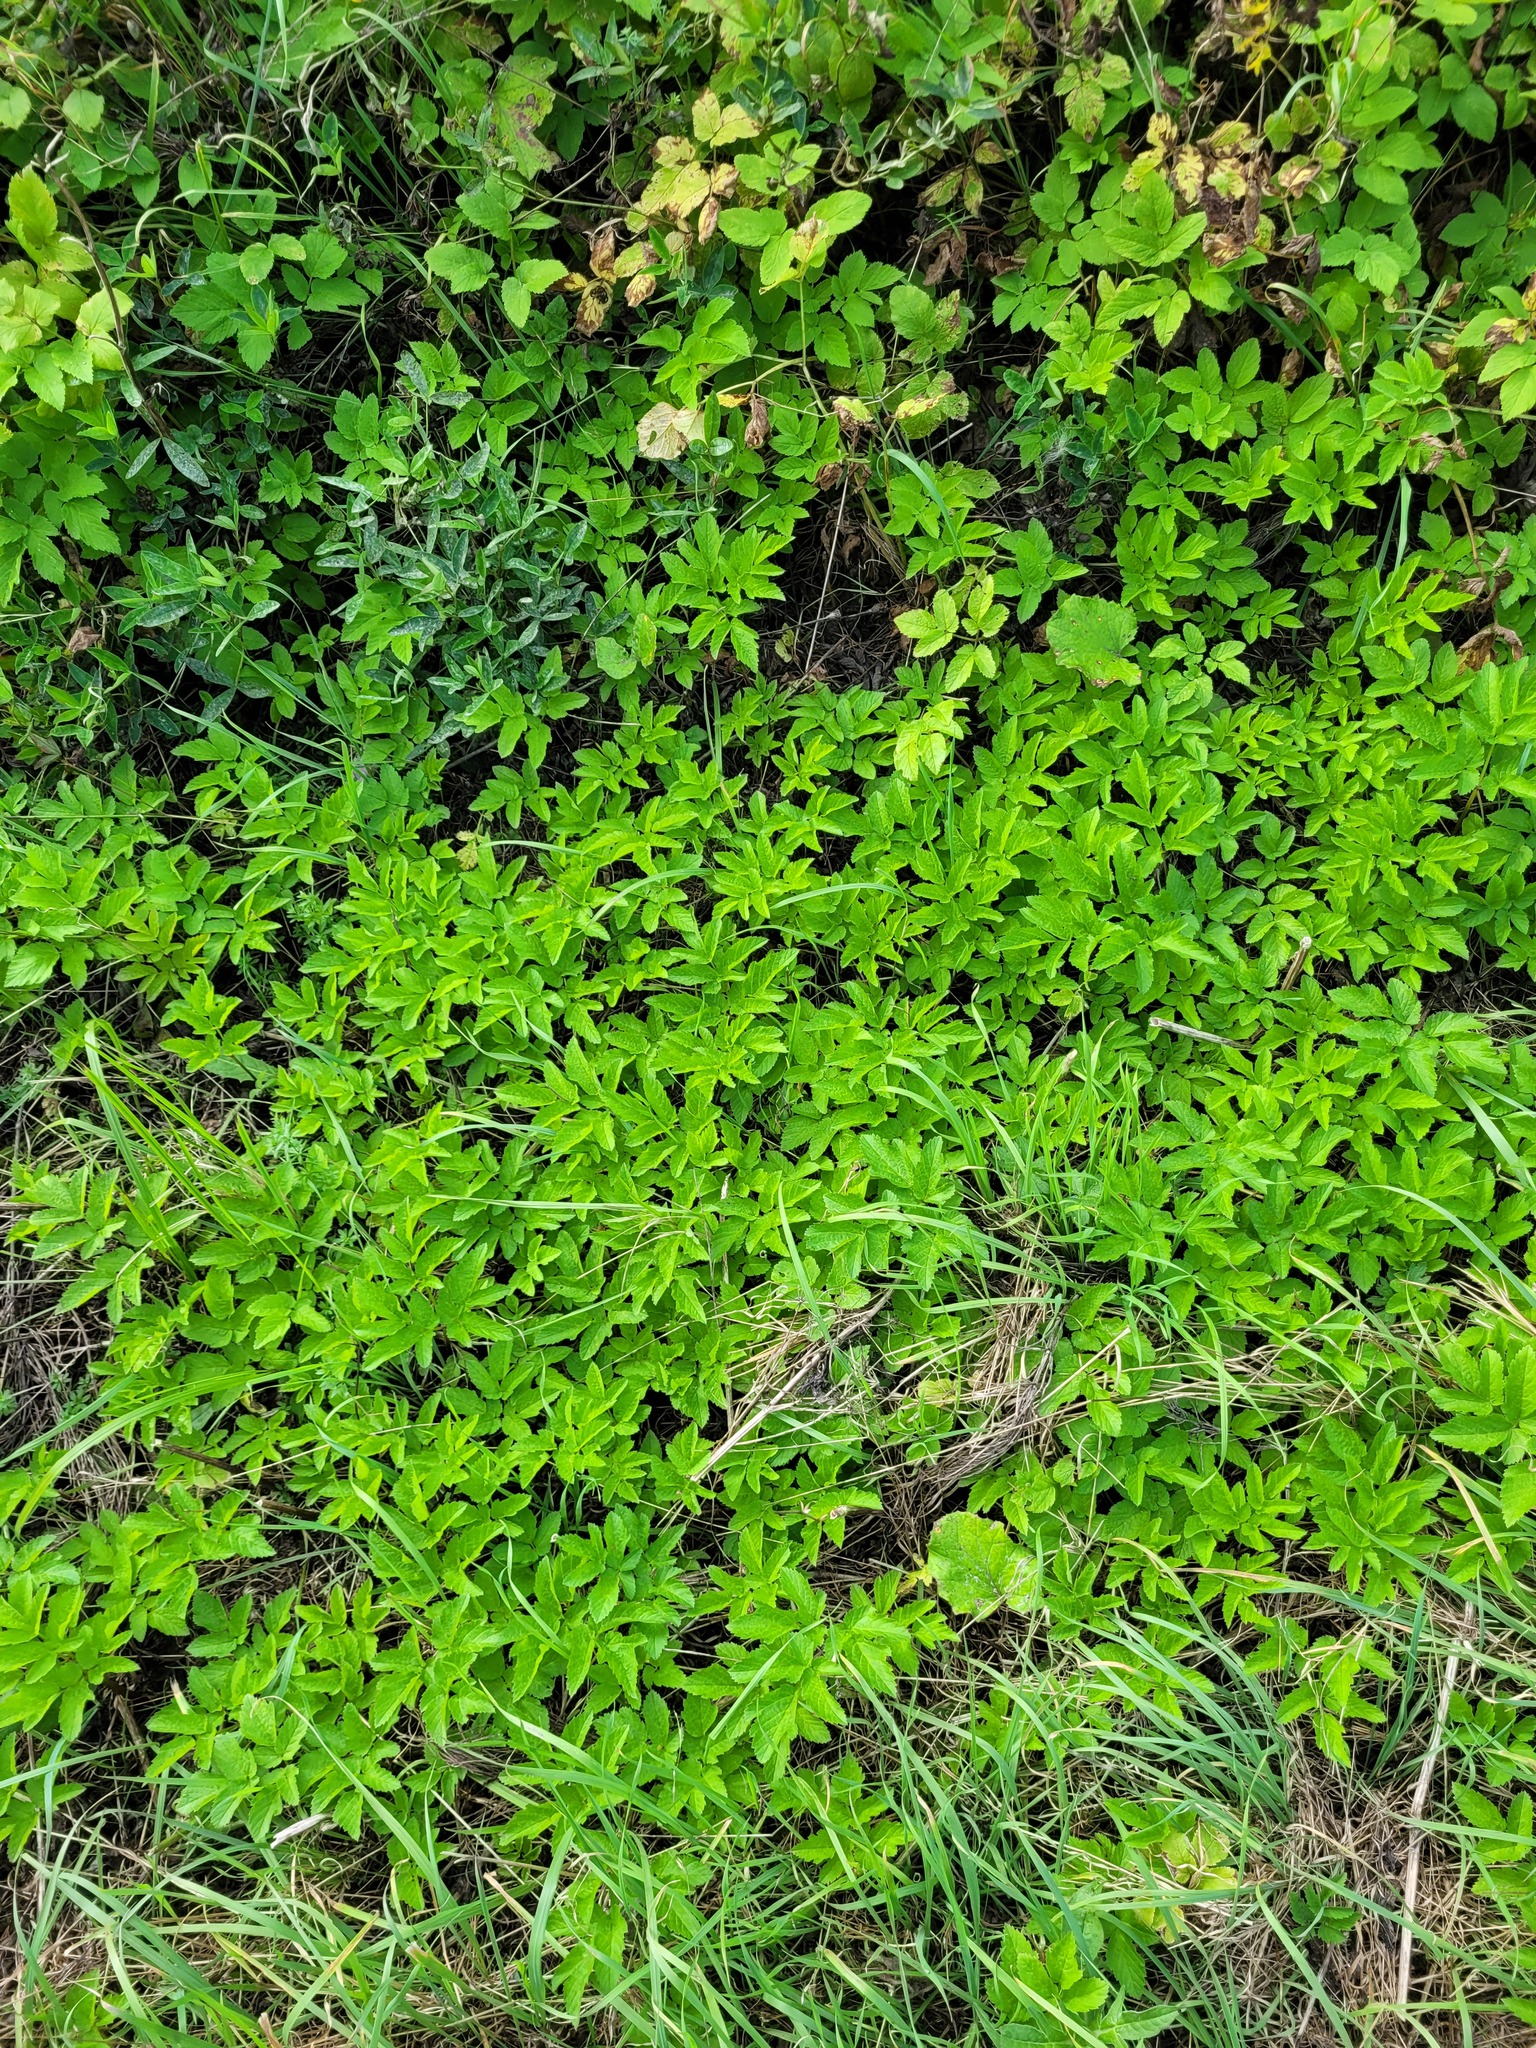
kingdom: Plantae
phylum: Tracheophyta
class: Magnoliopsida
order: Apiales
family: Apiaceae
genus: Aegopodium
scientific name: Aegopodium podagraria
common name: Ground-elder
